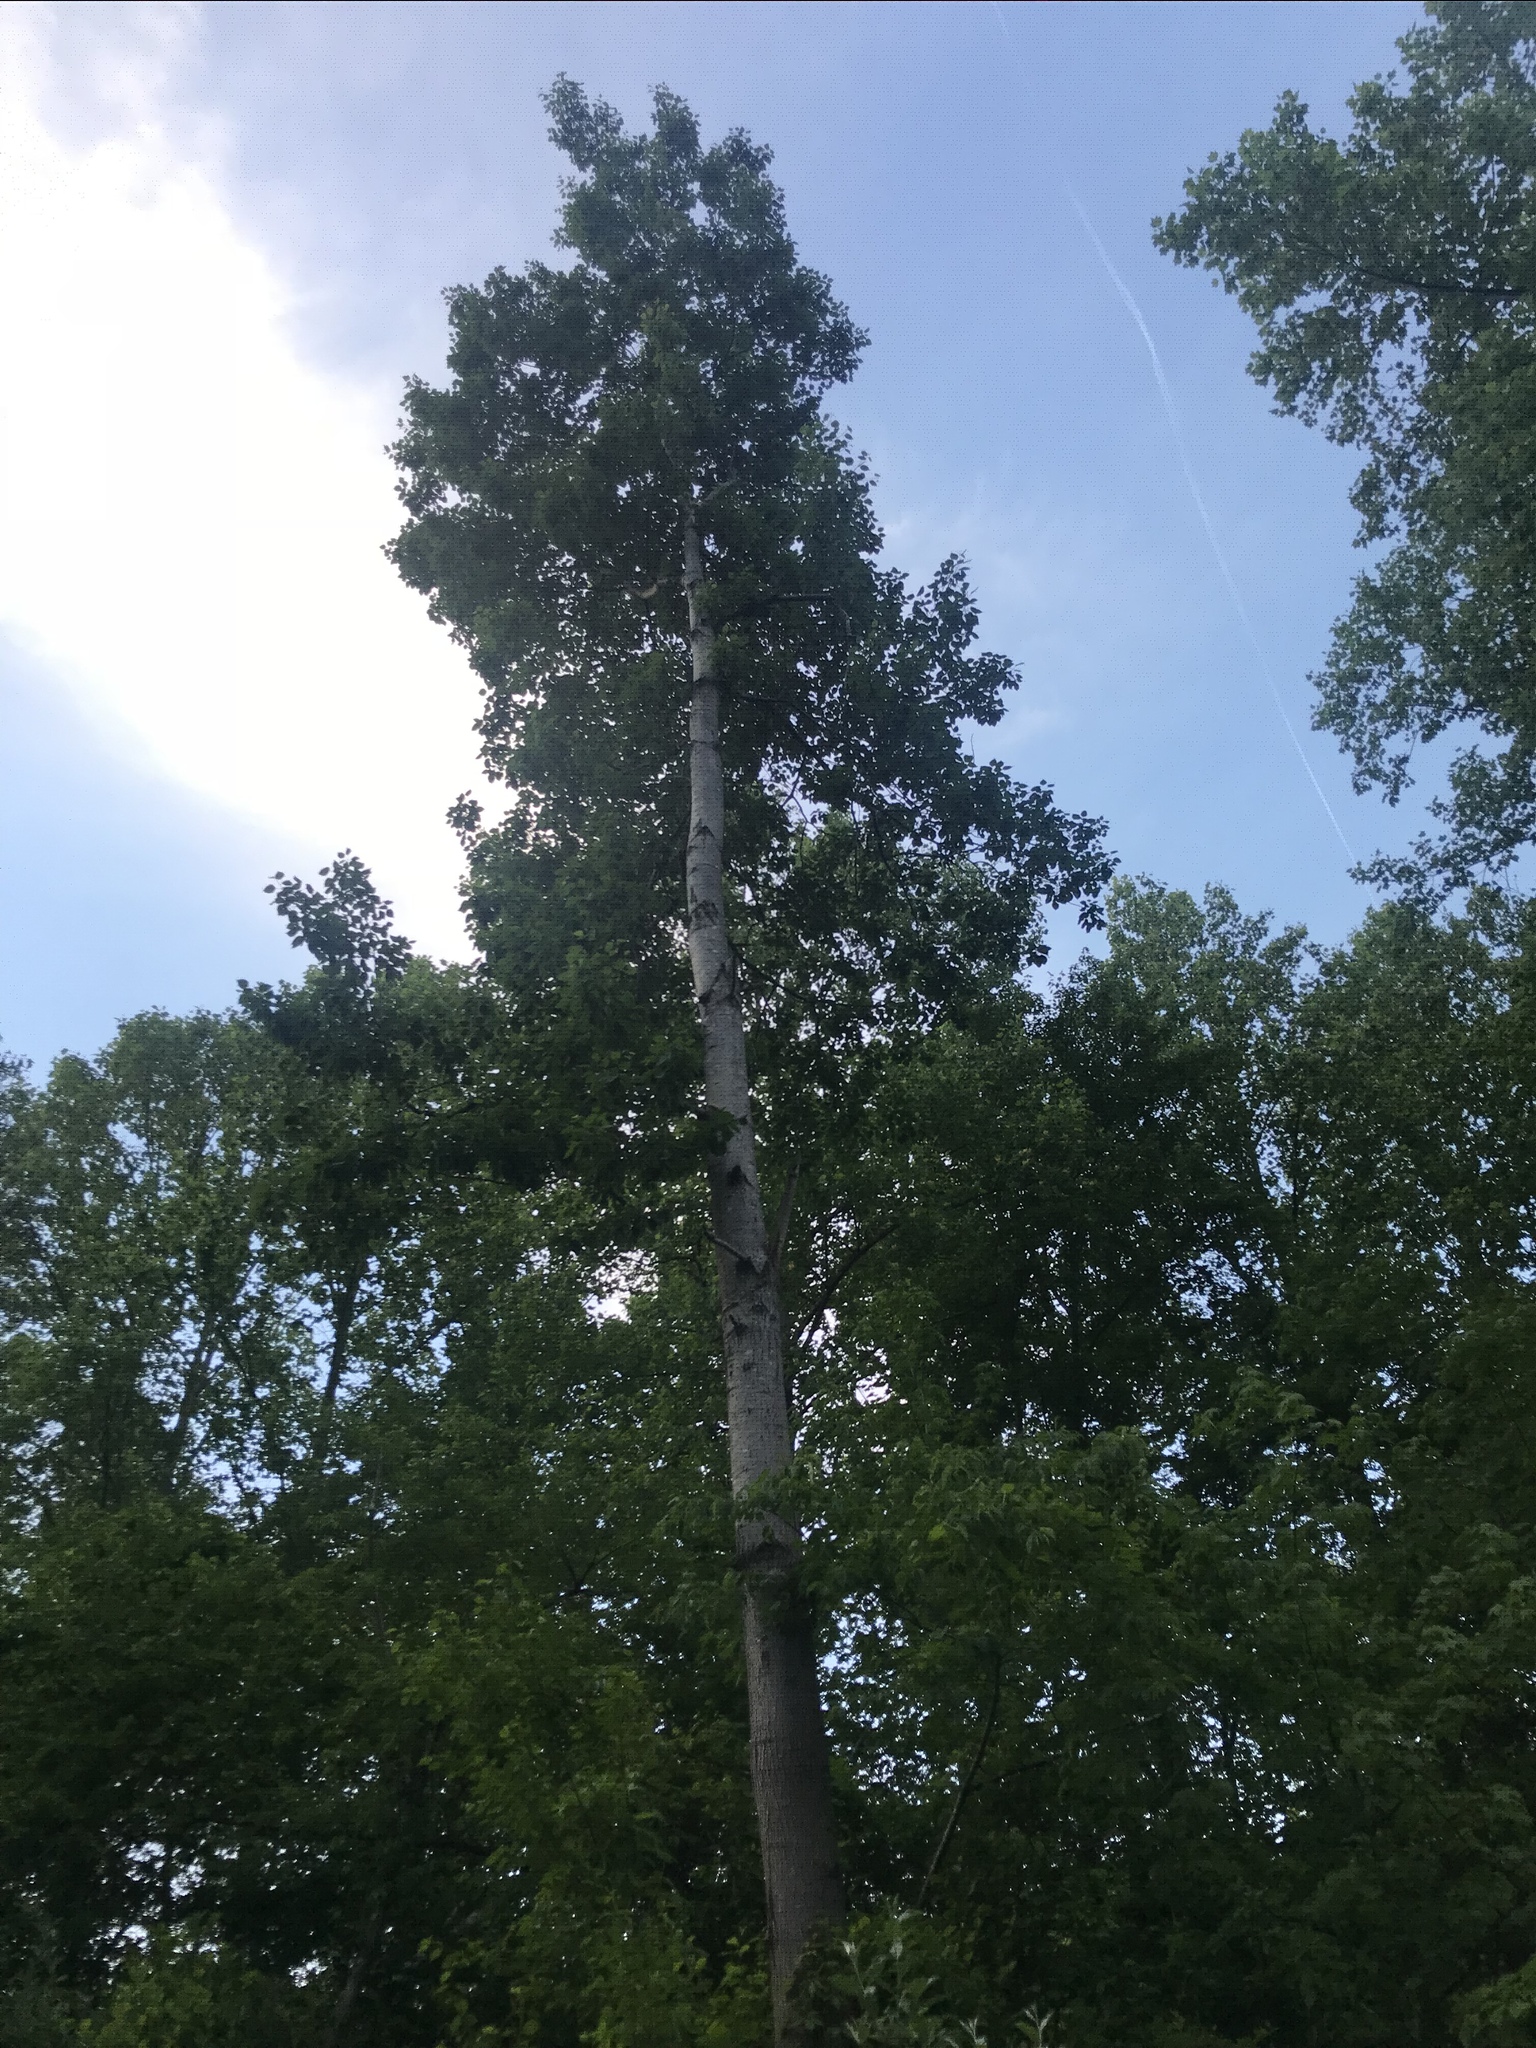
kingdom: Plantae
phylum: Tracheophyta
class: Magnoliopsida
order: Malpighiales
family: Salicaceae
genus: Populus
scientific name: Populus grandidentata
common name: Bigtooth aspen
